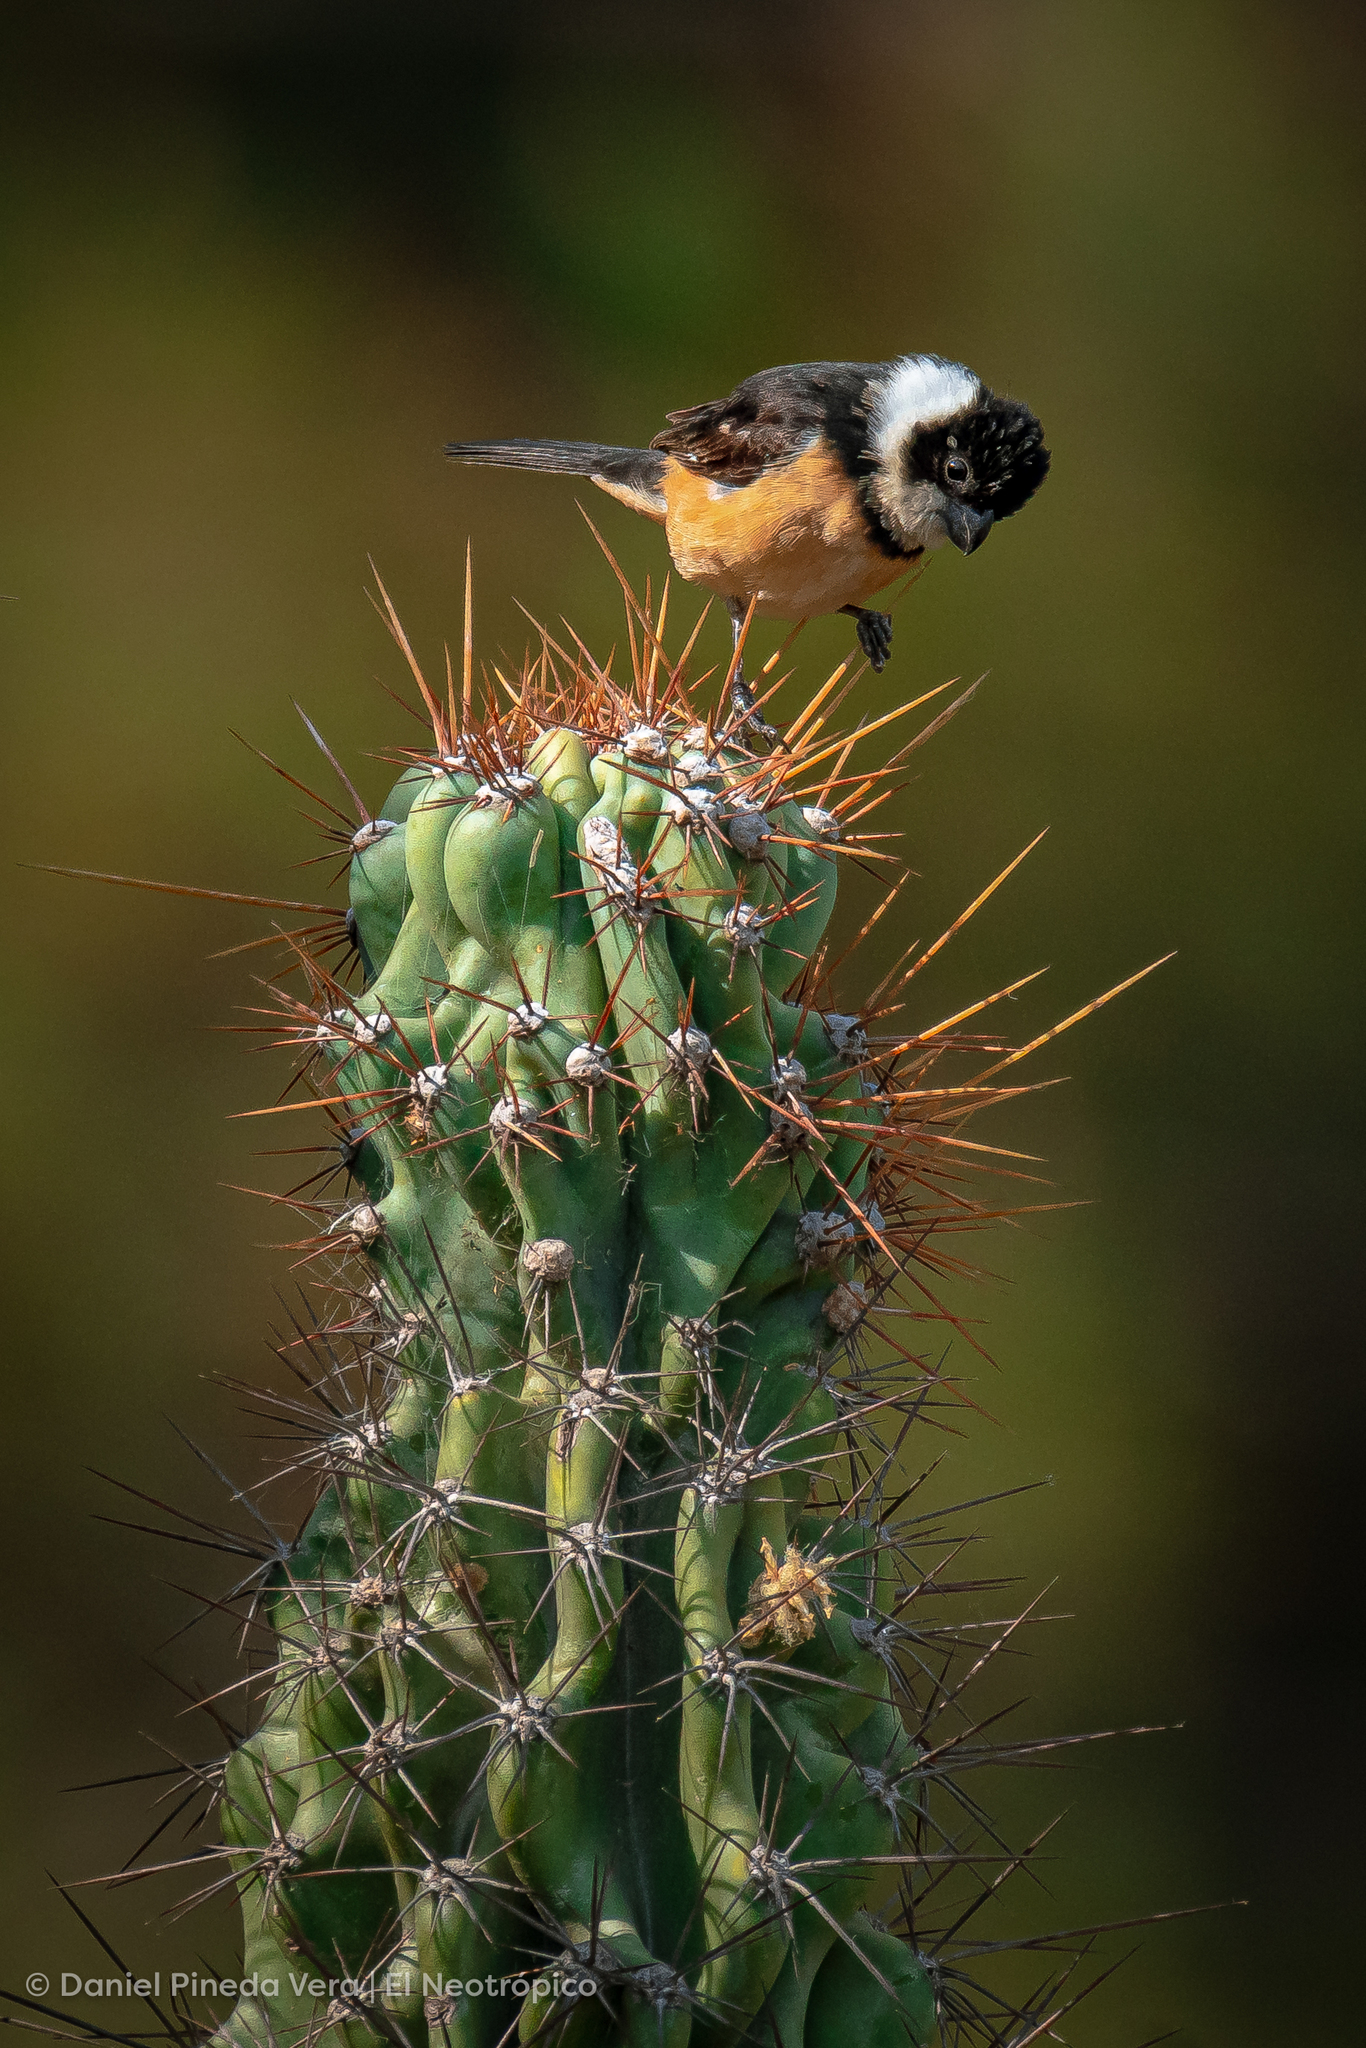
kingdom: Animalia
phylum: Chordata
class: Aves
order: Passeriformes
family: Thraupidae
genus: Sporophila
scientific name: Sporophila torqueola
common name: White-collared seedeater
